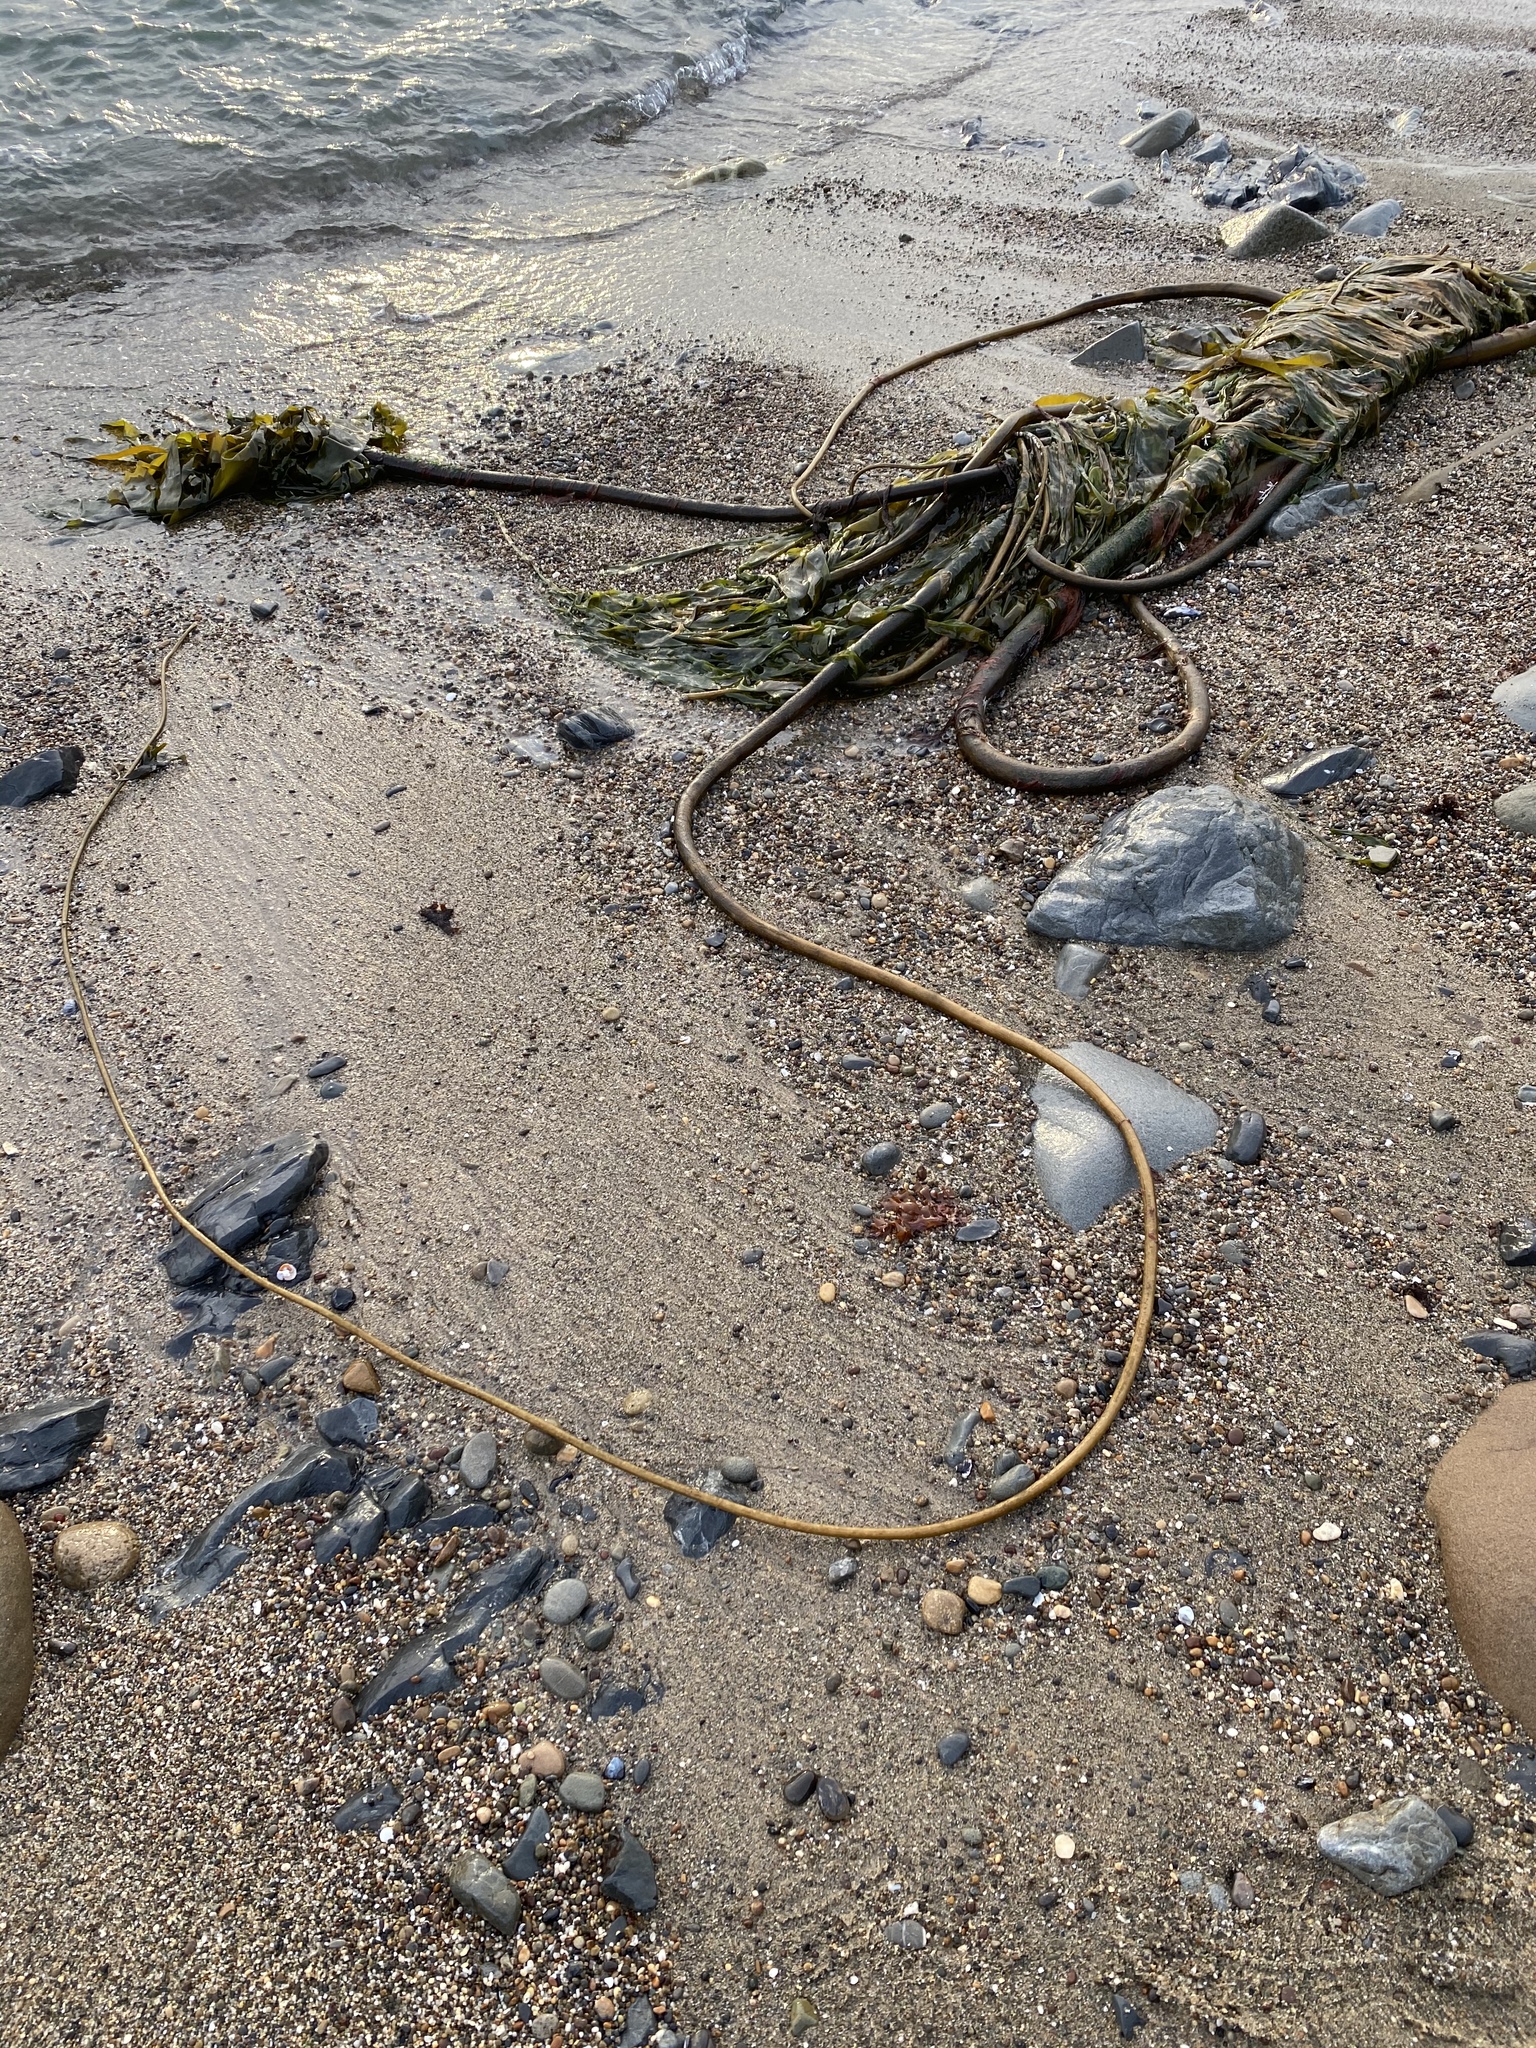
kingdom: Chromista
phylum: Ochrophyta
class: Phaeophyceae
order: Laminariales
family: Laminariaceae
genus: Nereocystis
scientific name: Nereocystis luetkeana
